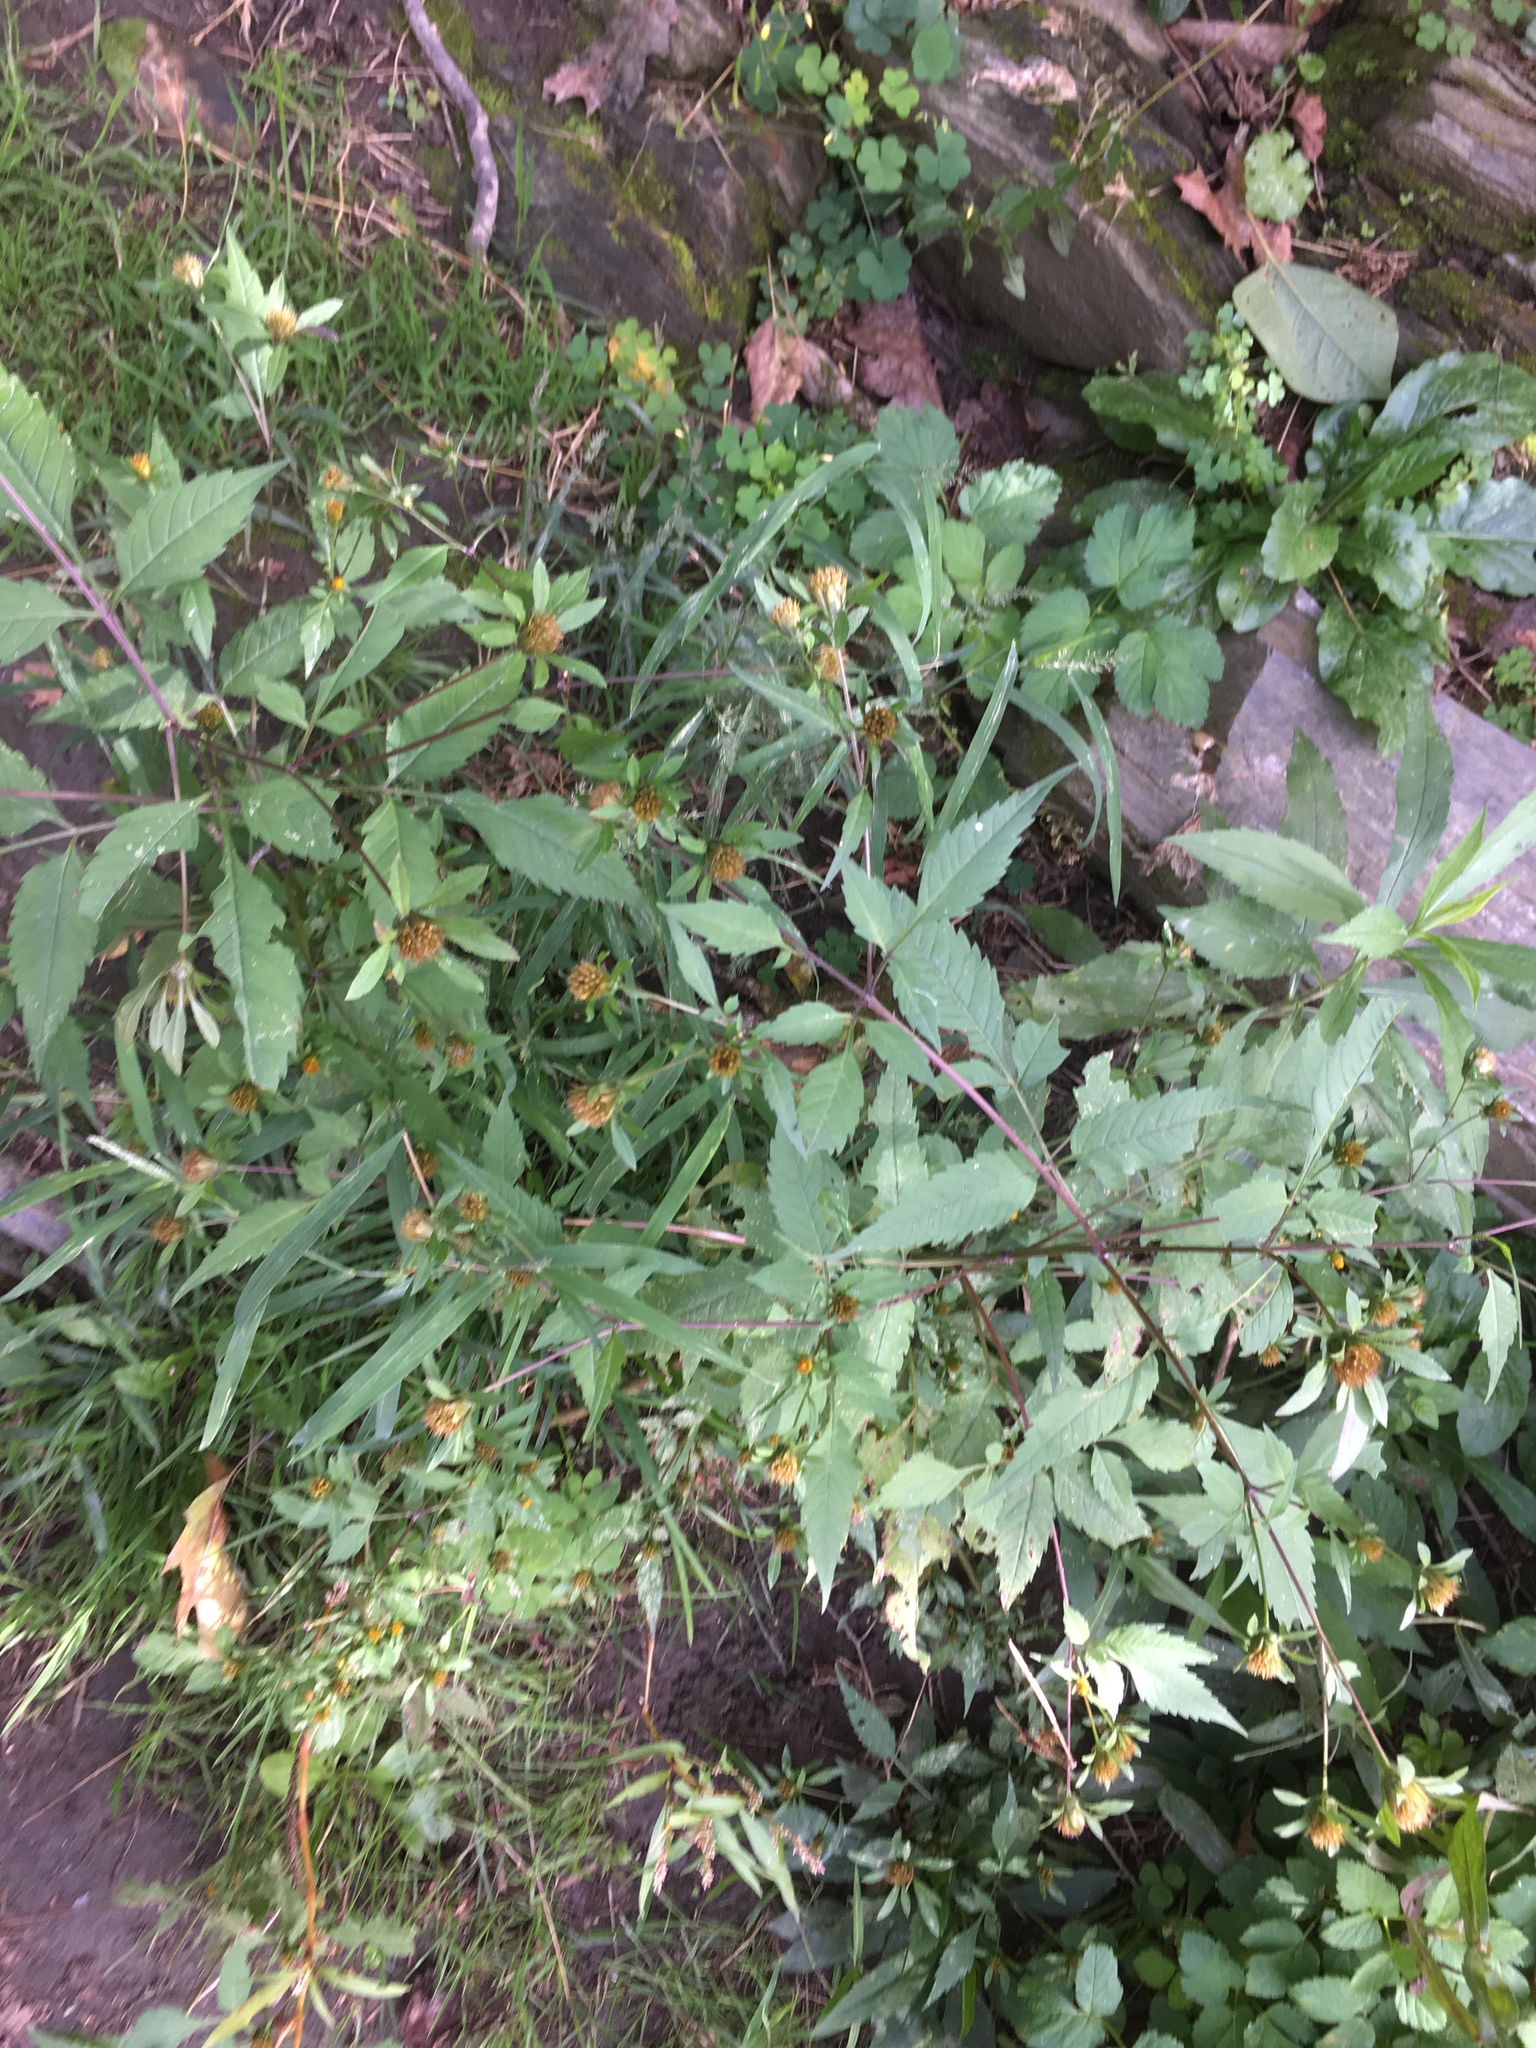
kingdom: Plantae
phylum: Tracheophyta
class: Magnoliopsida
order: Asterales
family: Asteraceae
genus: Bidens
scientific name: Bidens frondosa
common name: Beggarticks
